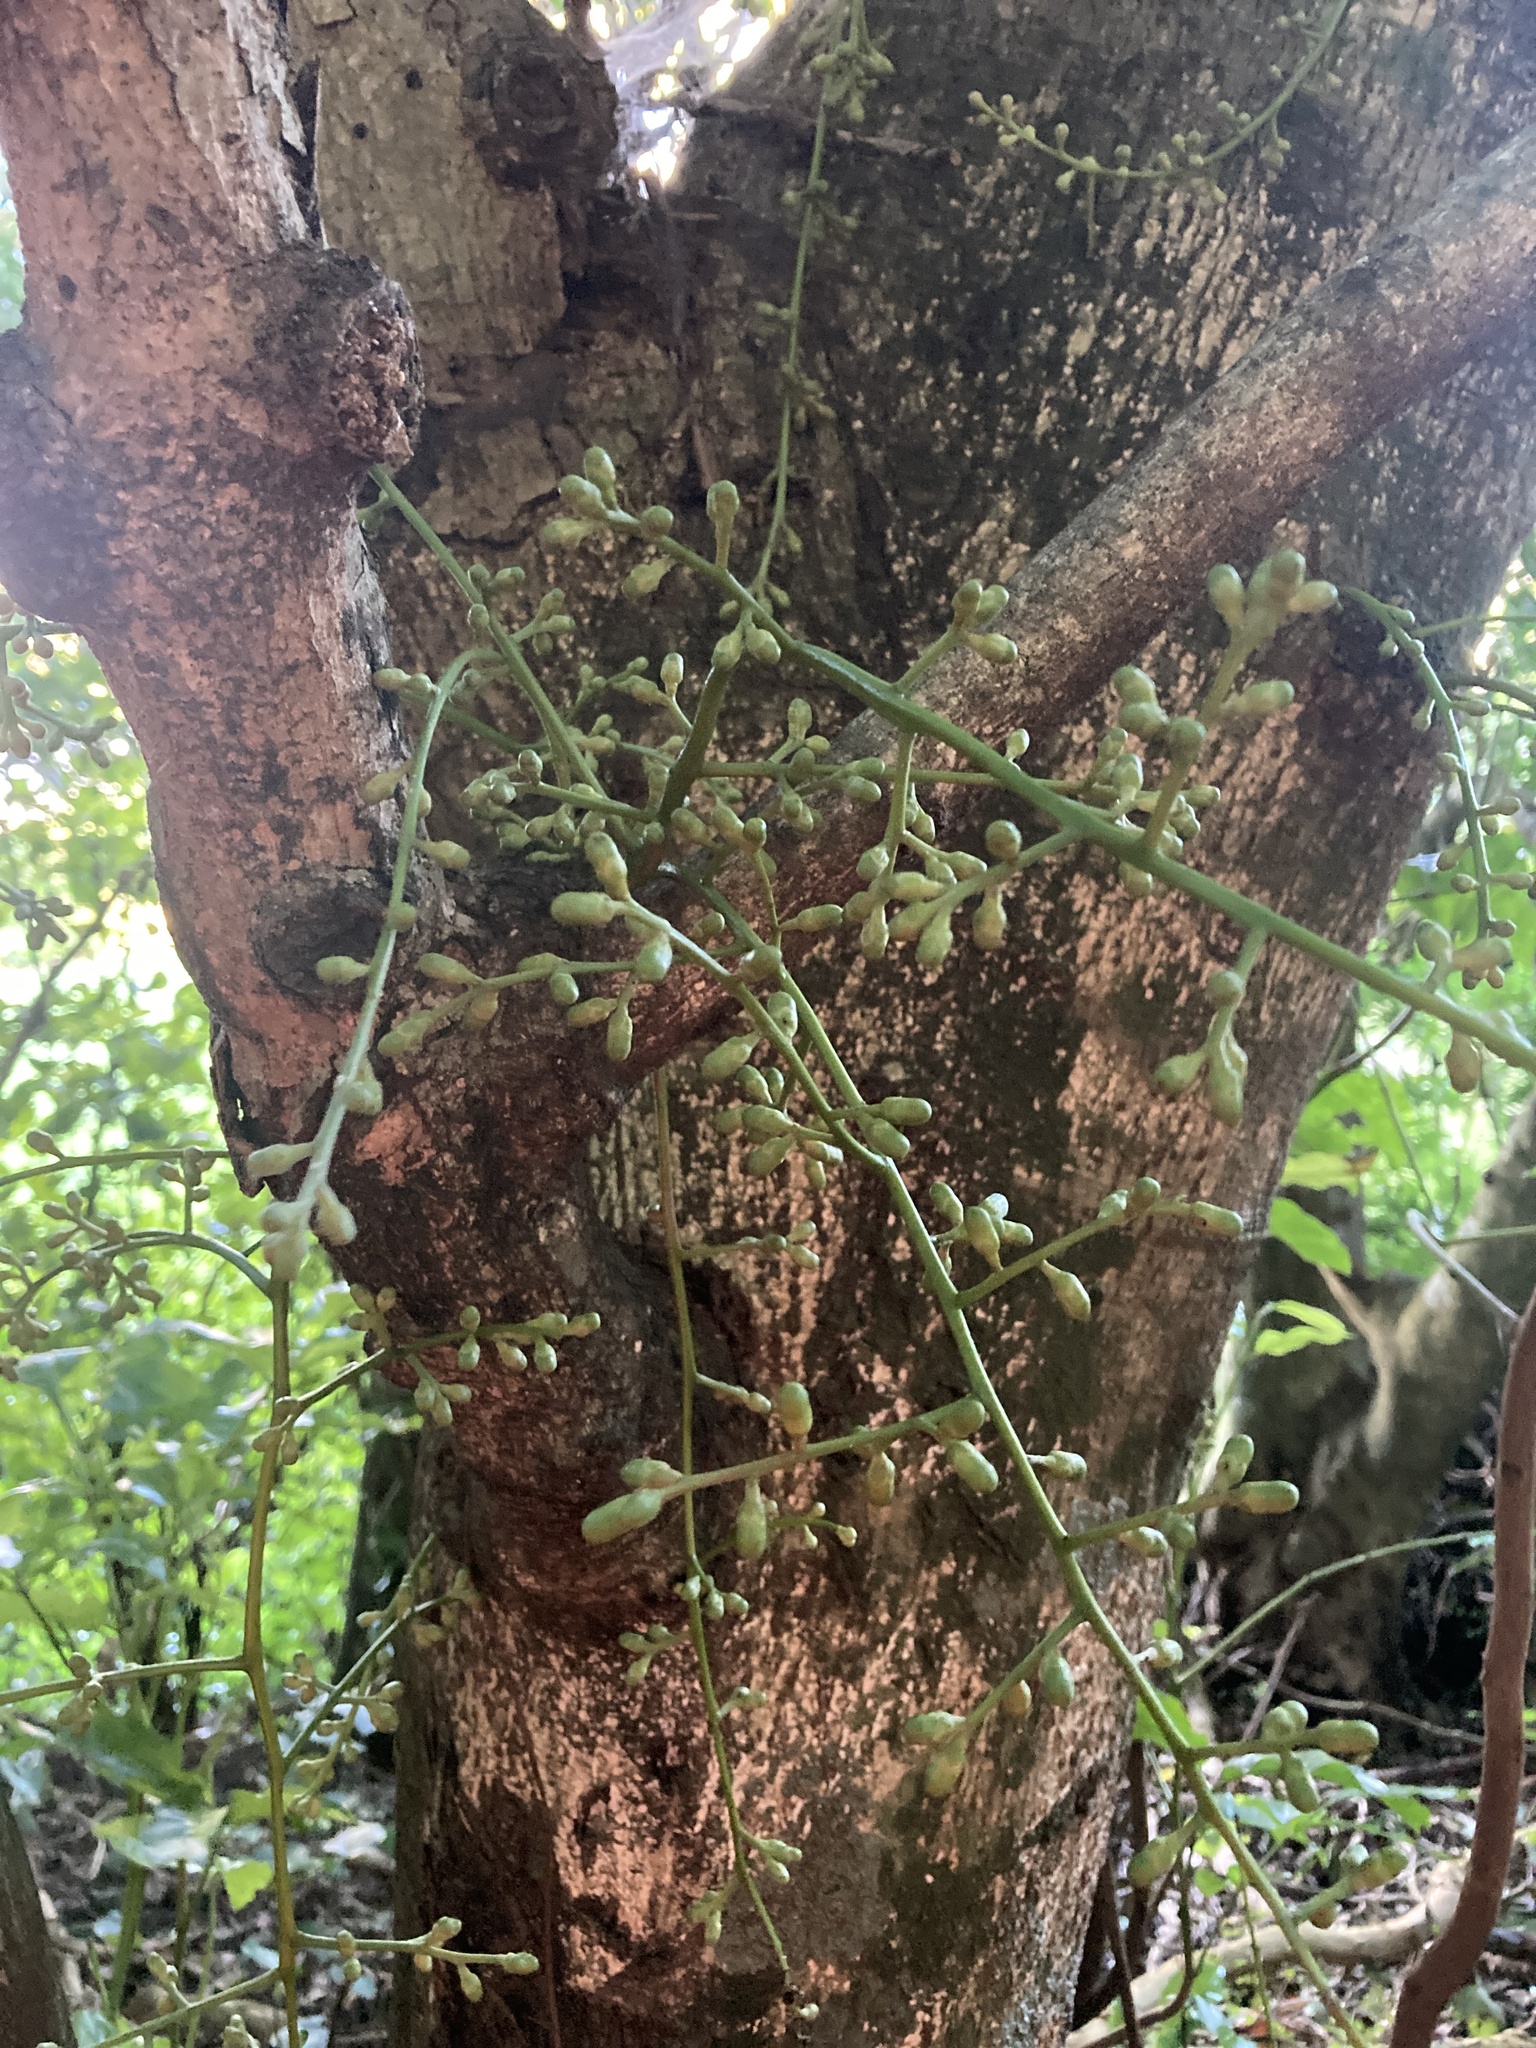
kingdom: Plantae
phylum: Tracheophyta
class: Magnoliopsida
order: Sapindales
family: Meliaceae
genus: Didymocheton
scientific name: Didymocheton spectabilis
